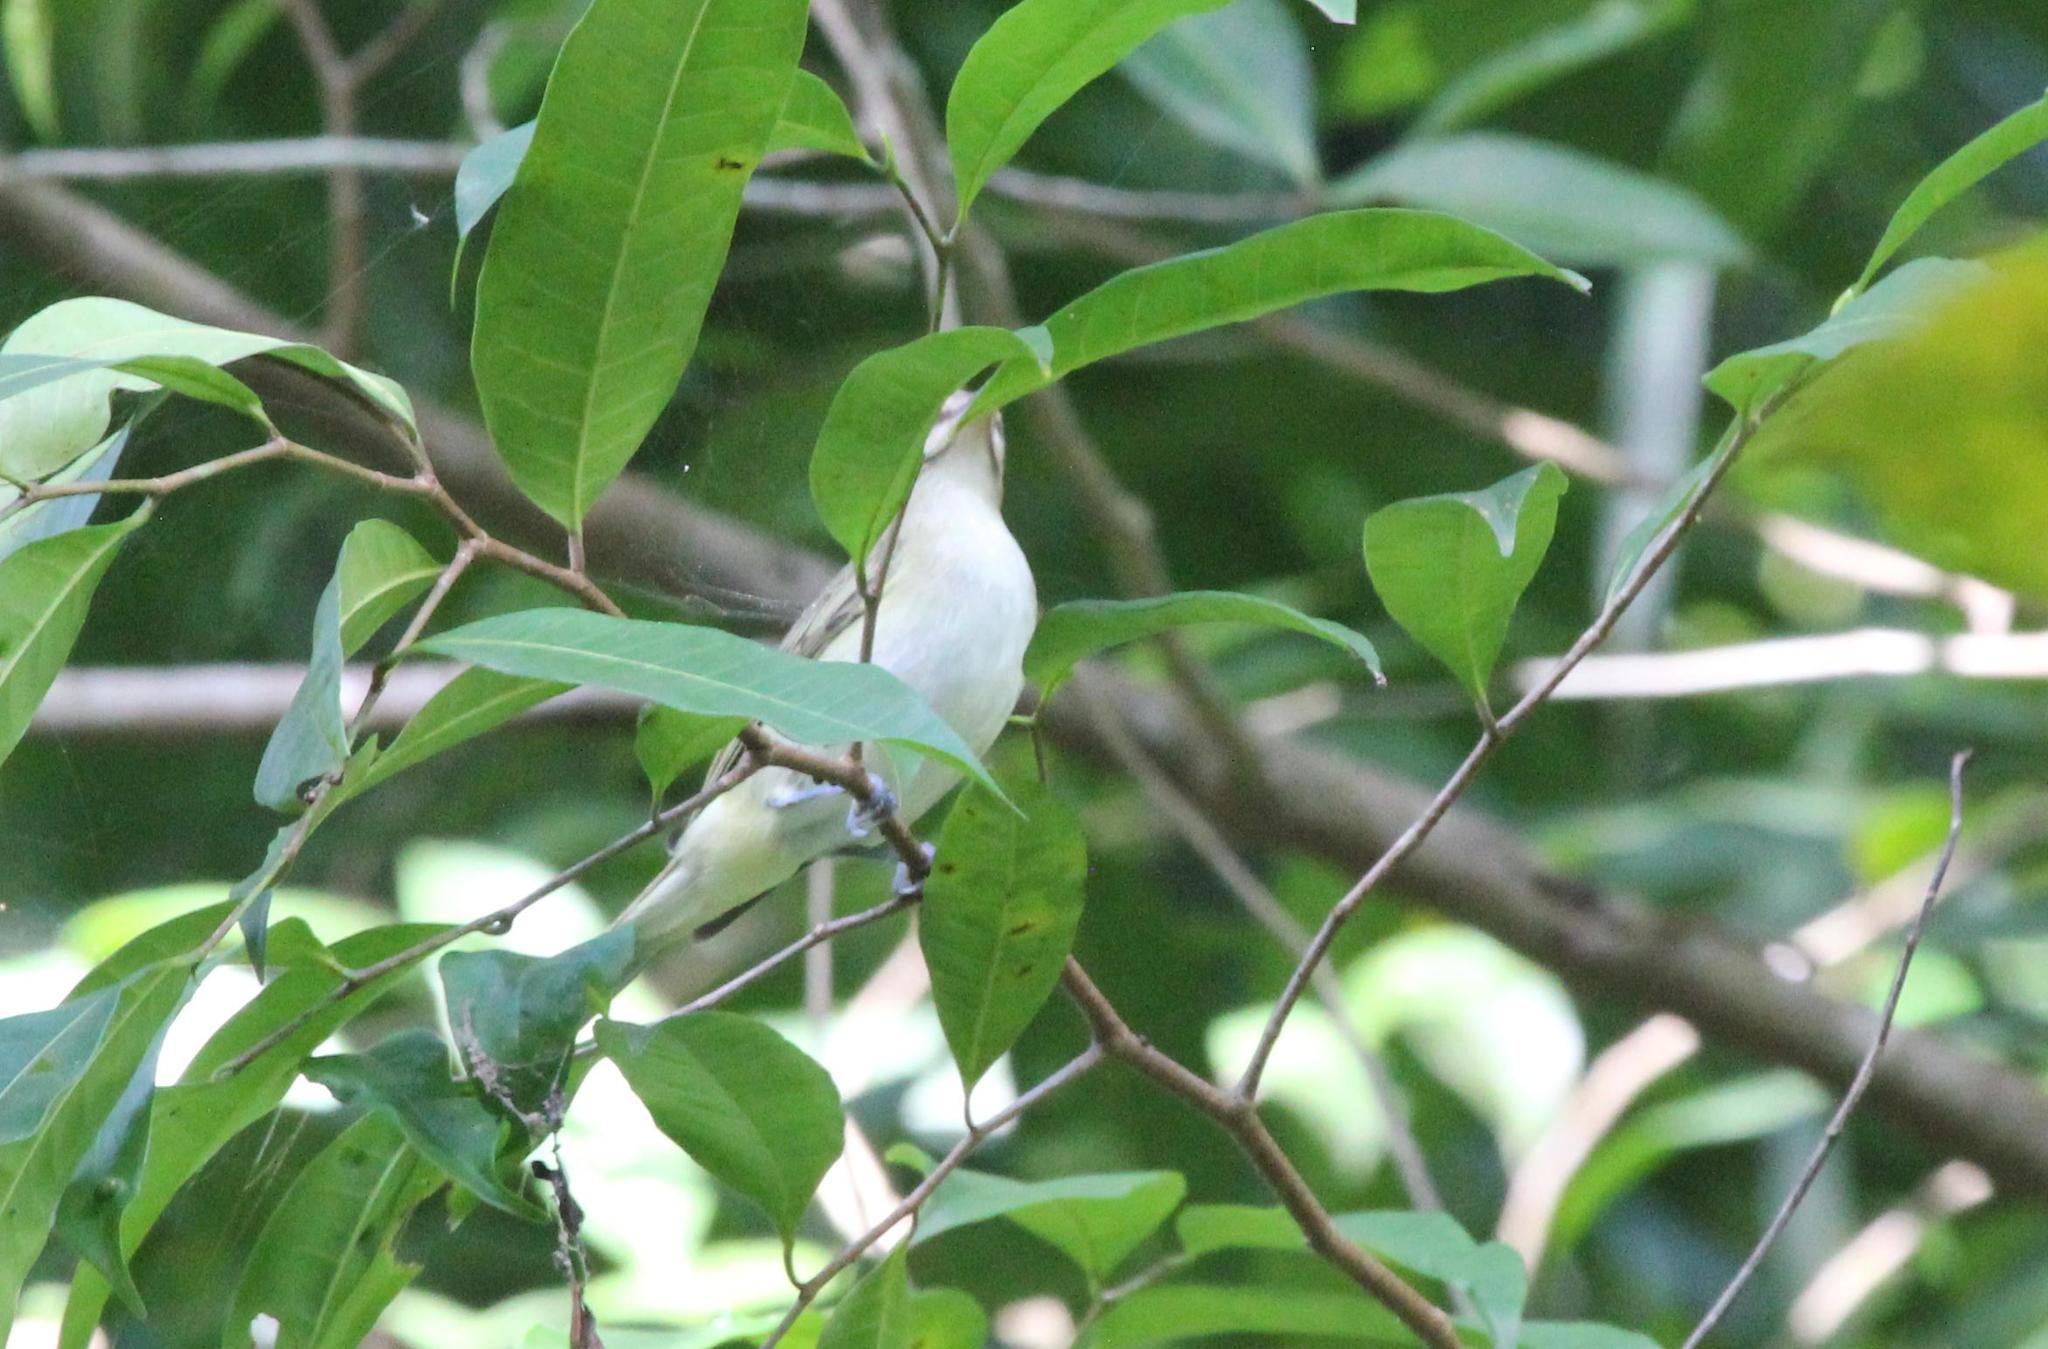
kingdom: Animalia
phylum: Chordata
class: Aves
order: Passeriformes
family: Vireonidae
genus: Vireo
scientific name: Vireo altiloquus
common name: Black-whiskered vireo
